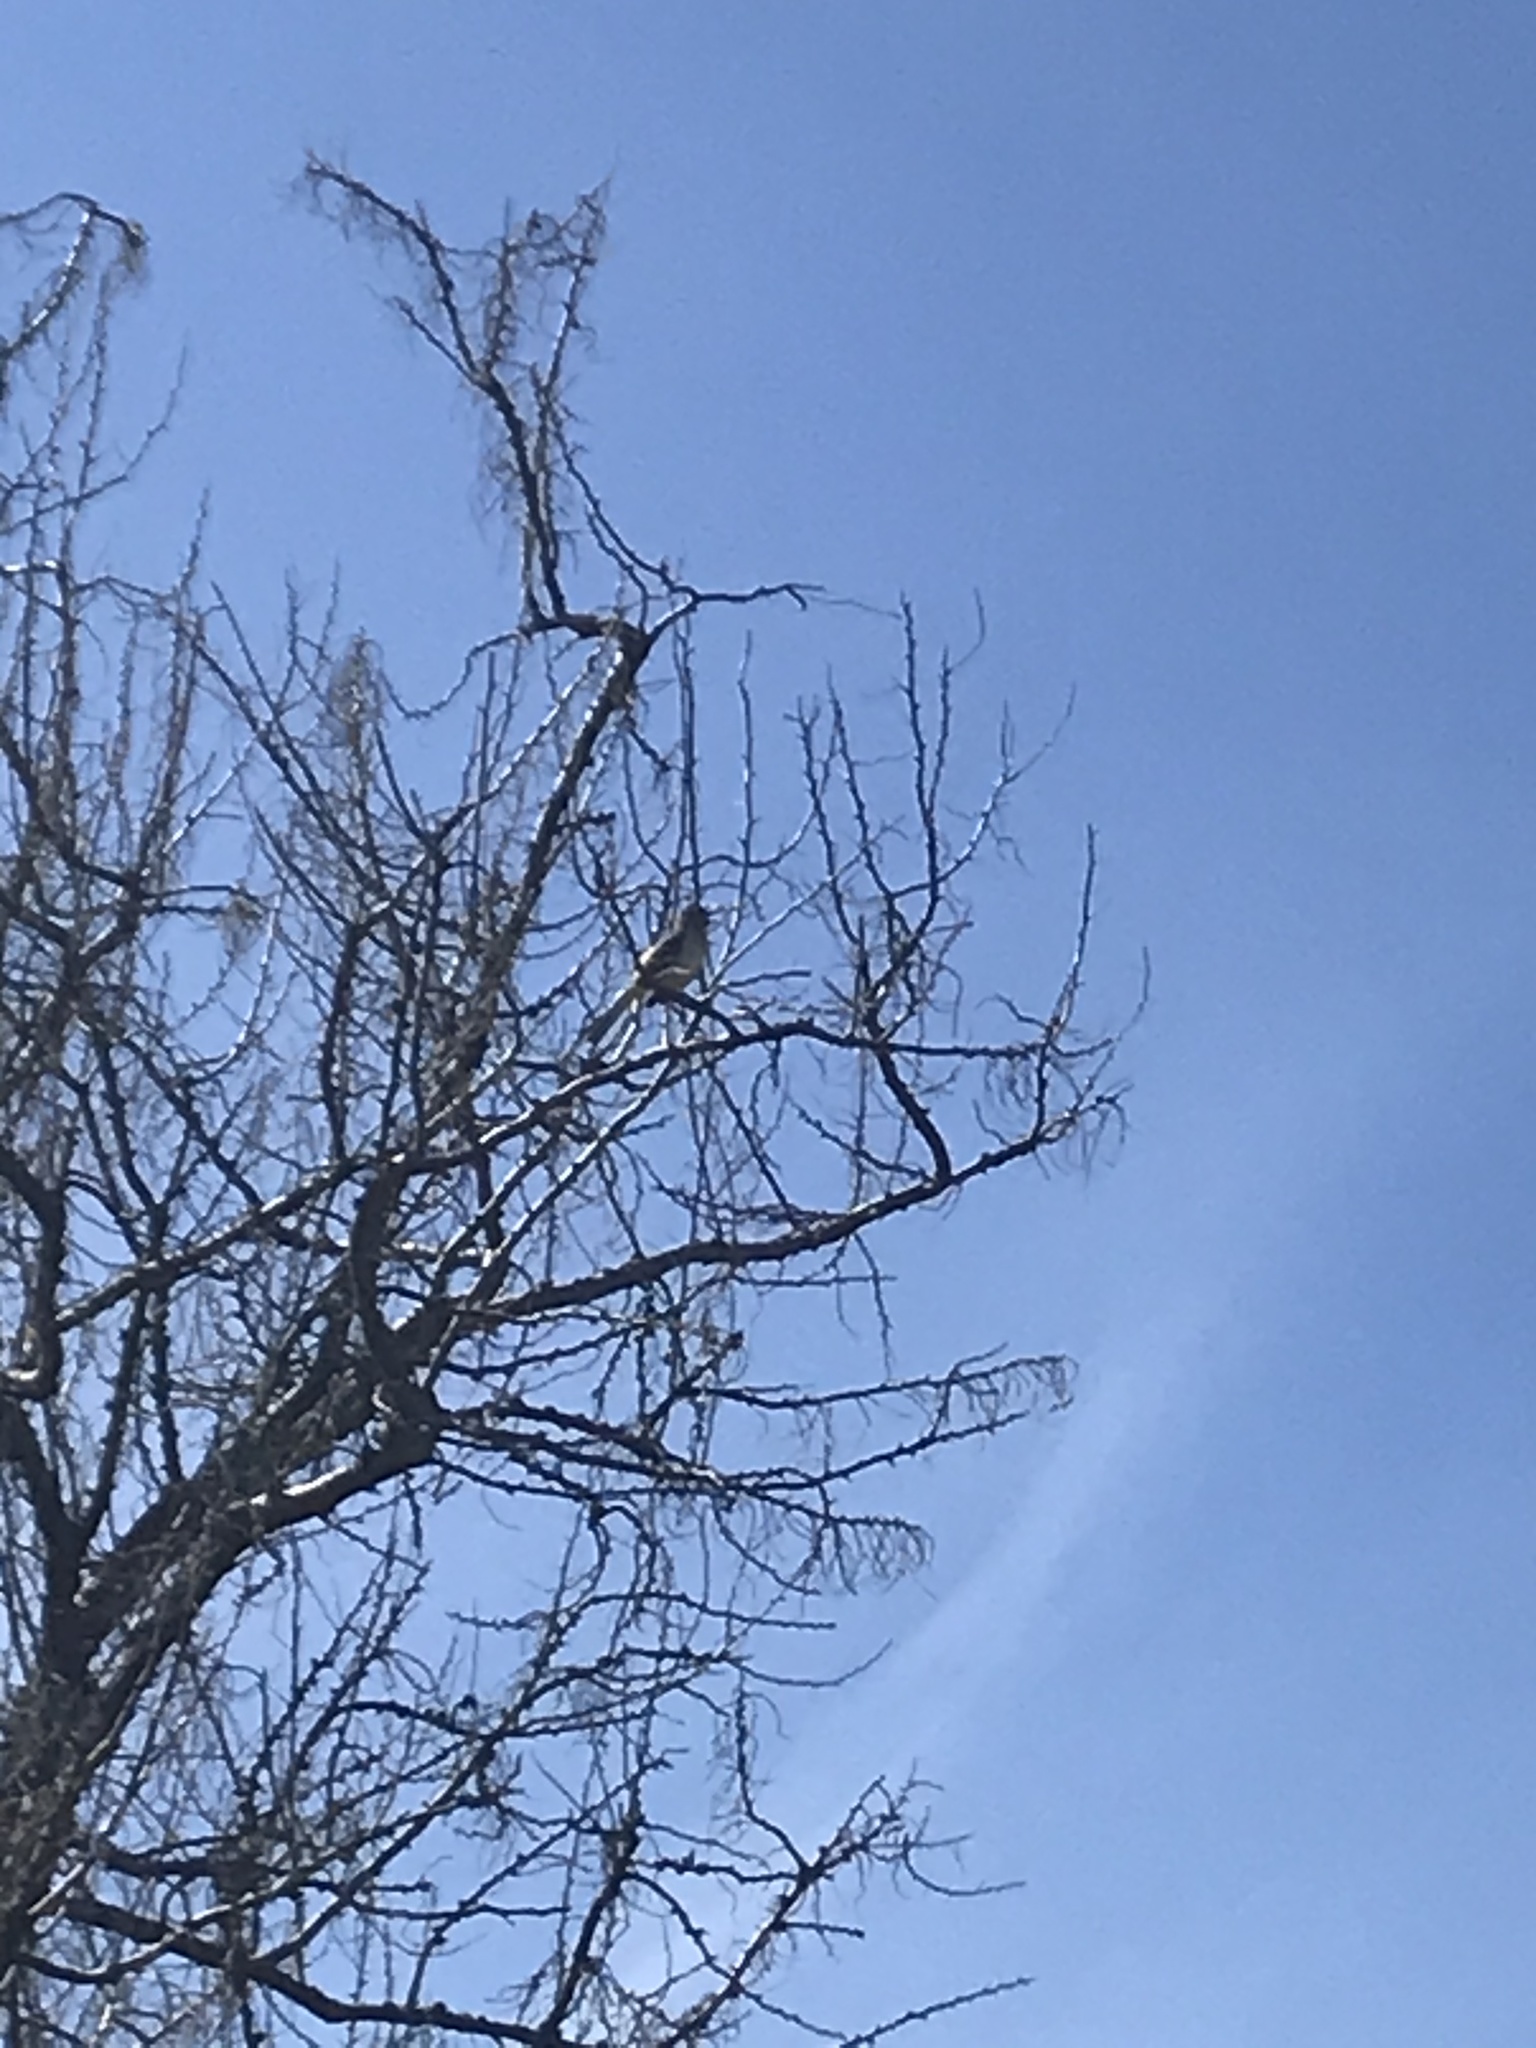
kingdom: Animalia
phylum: Chordata
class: Aves
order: Passeriformes
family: Mimidae
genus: Mimus
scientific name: Mimus polyglottos
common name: Northern mockingbird
